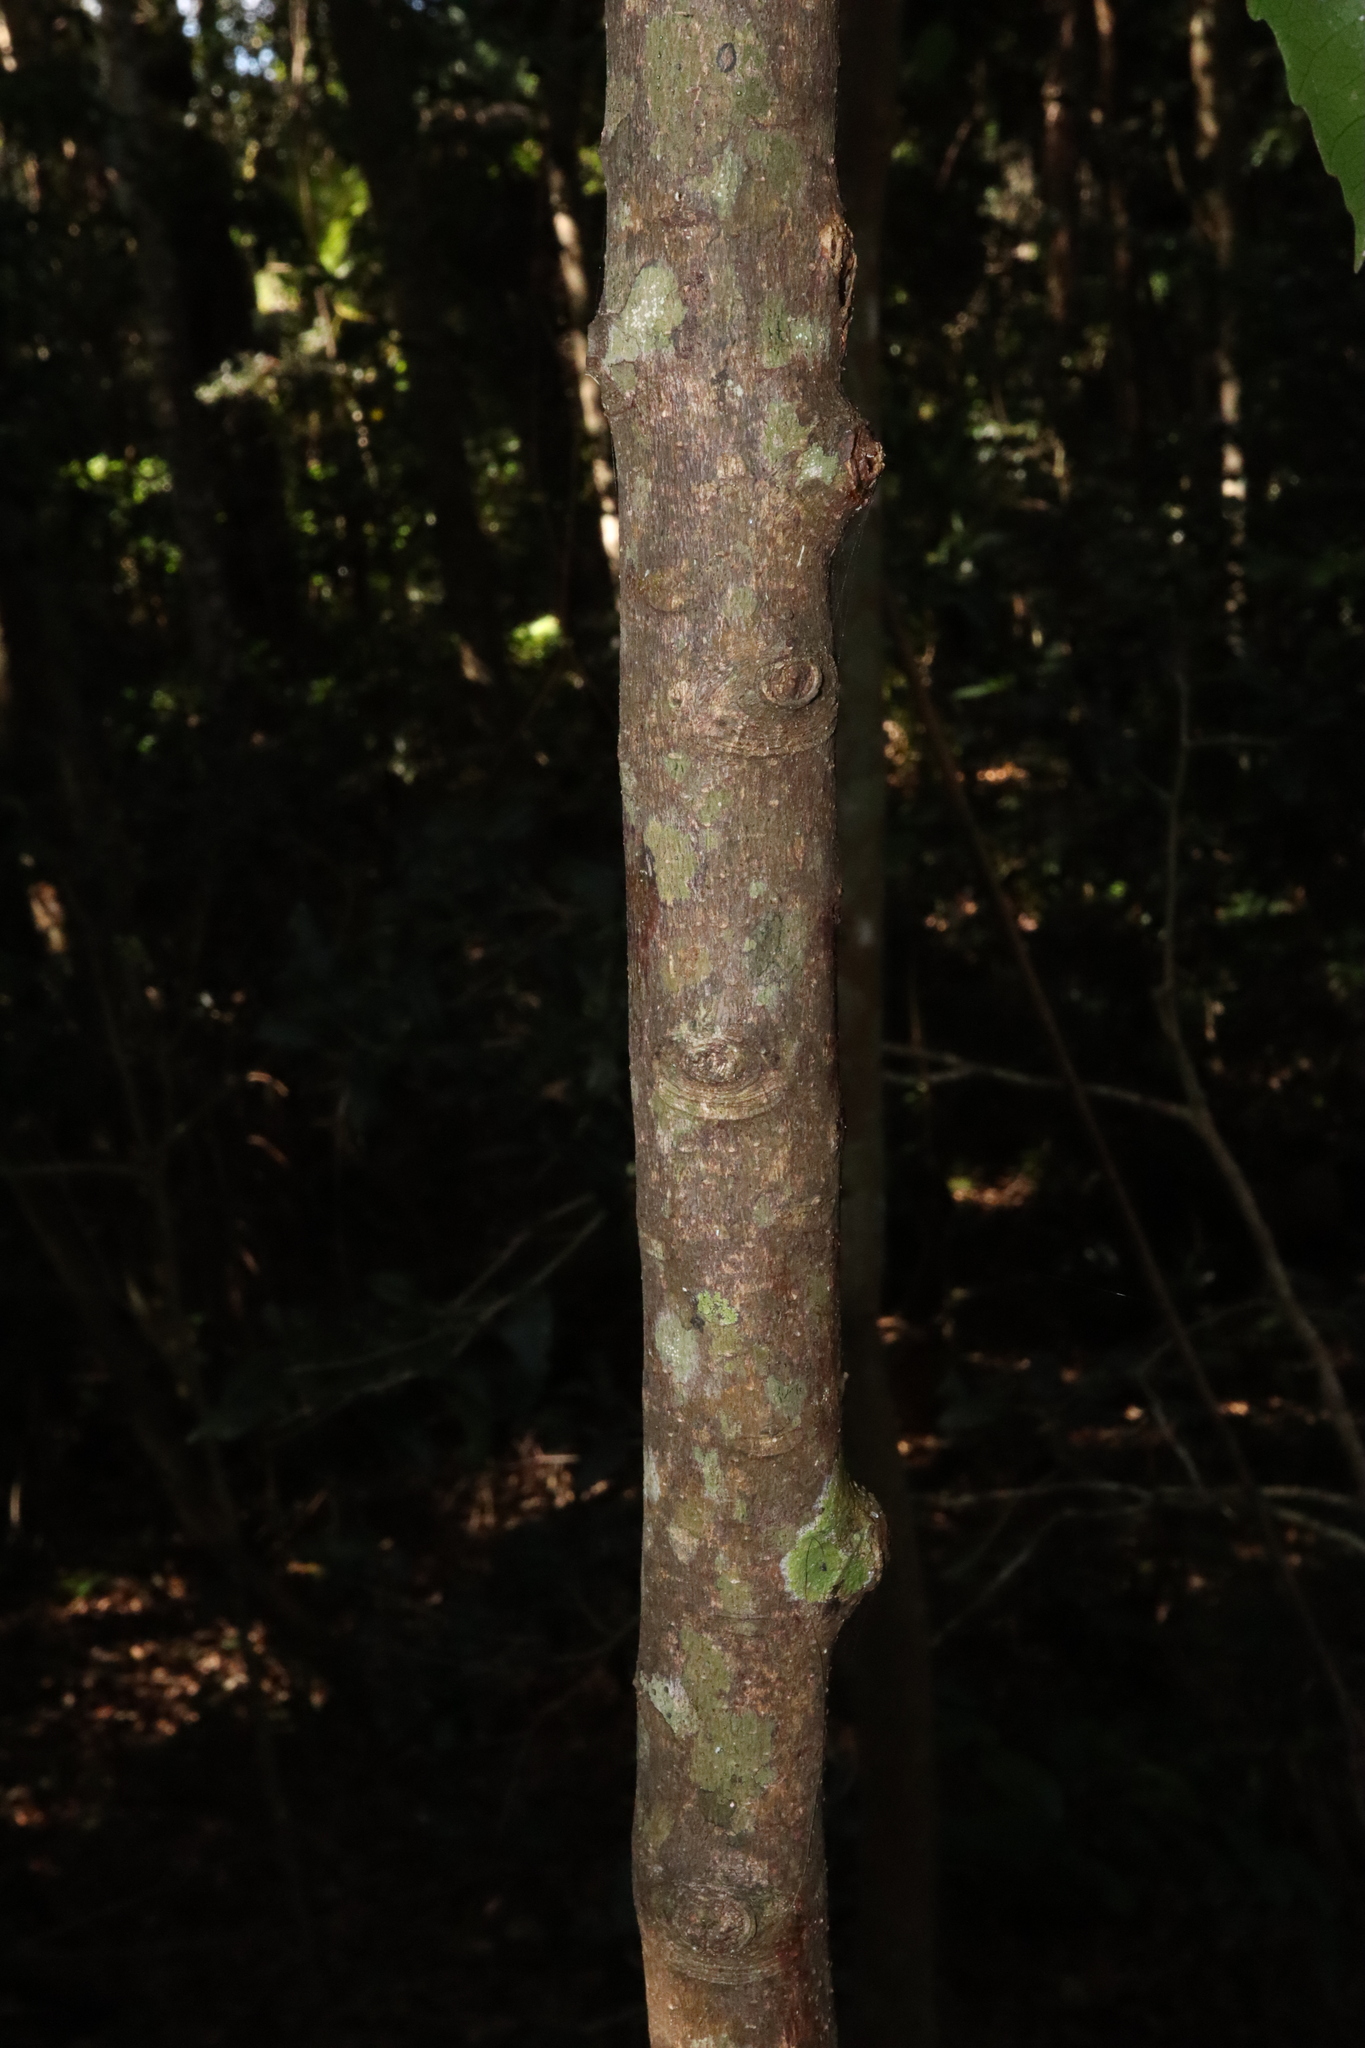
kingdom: Plantae
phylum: Tracheophyta
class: Magnoliopsida
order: Oxalidales
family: Elaeocarpaceae
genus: Sloanea
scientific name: Sloanea woollsii
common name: Yellow carabeen
